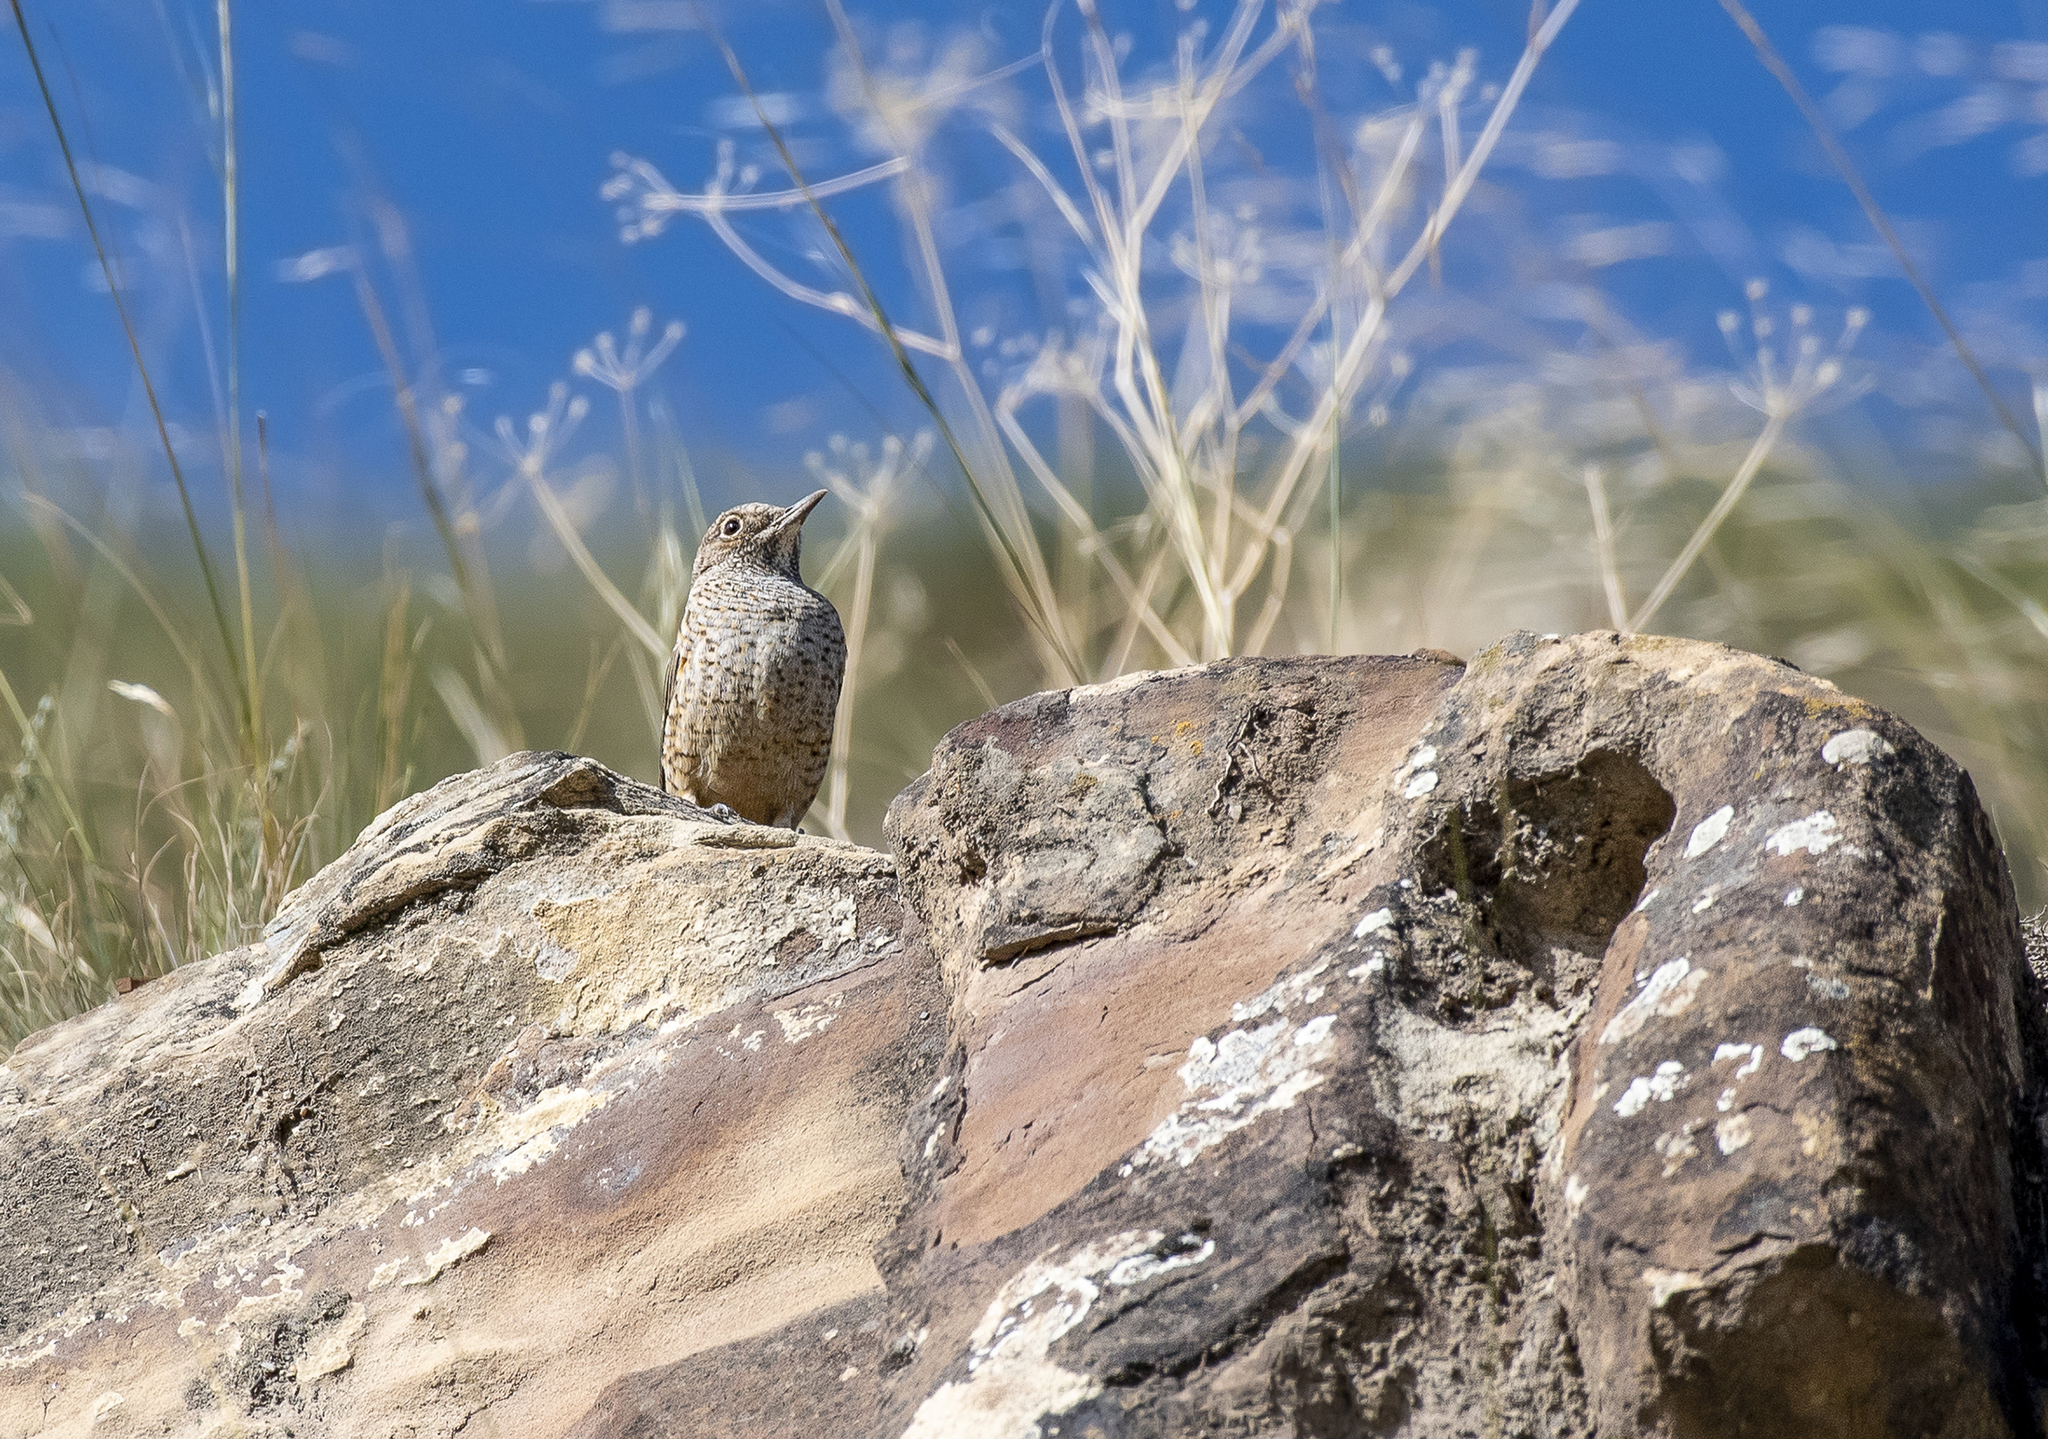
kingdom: Animalia
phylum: Chordata
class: Aves
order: Passeriformes
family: Muscicapidae
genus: Monticola
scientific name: Monticola saxatilis
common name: Rufous-tailed rock thrush
